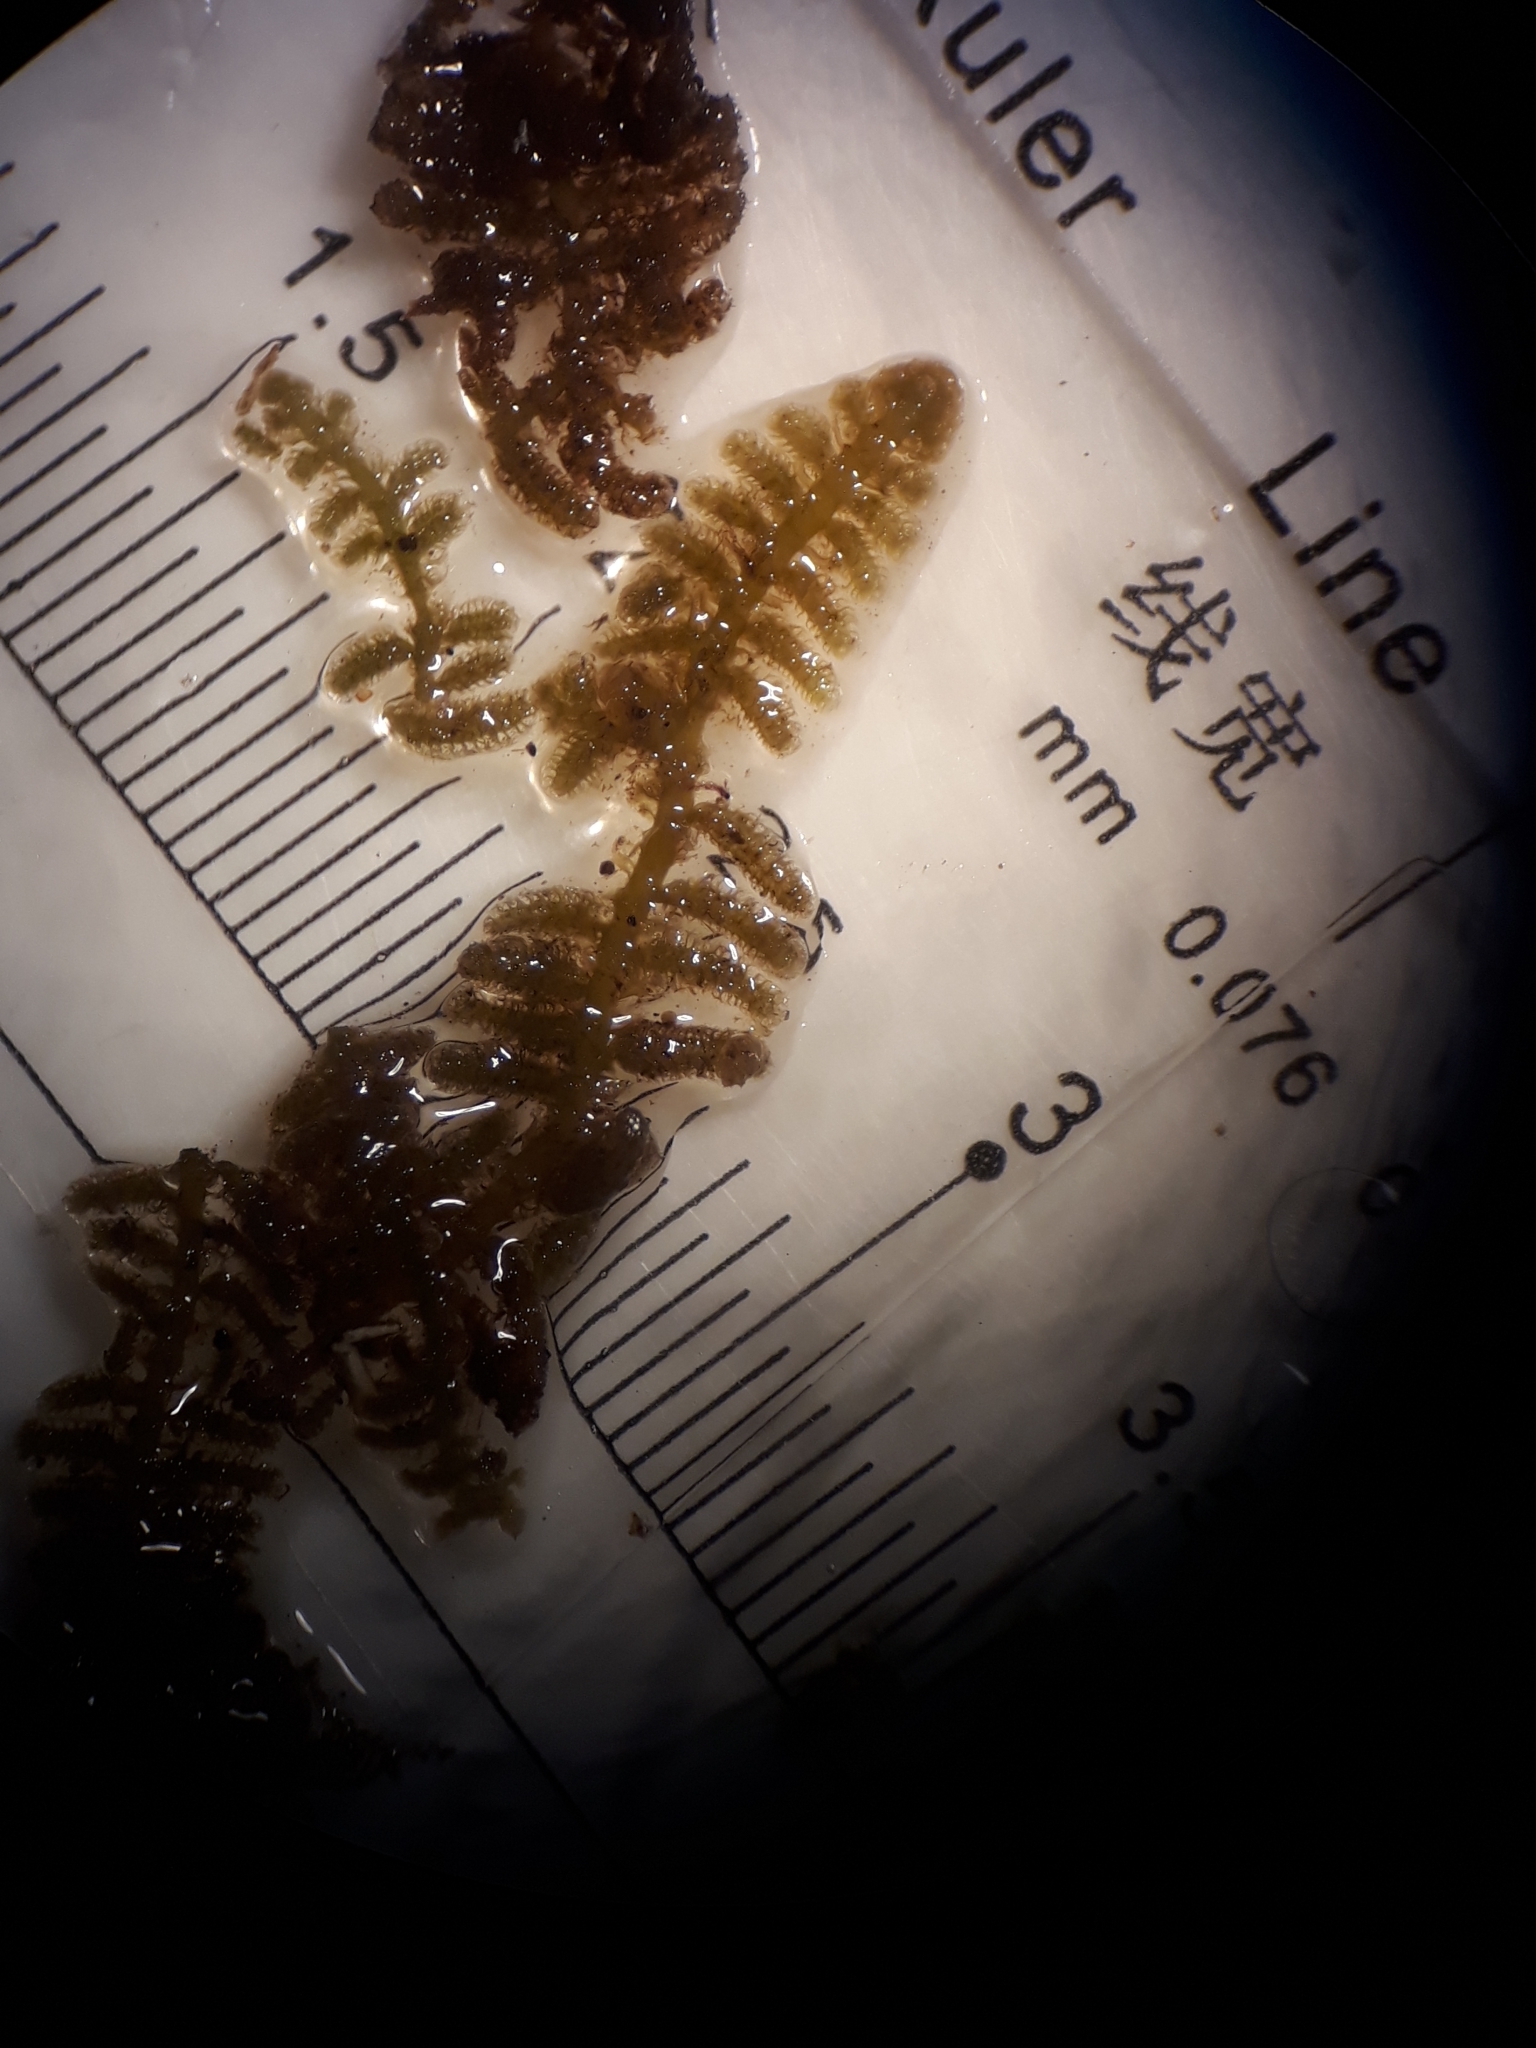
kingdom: Plantae
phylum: Marchantiophyta
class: Jungermanniopsida
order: Ptilidiales
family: Herzogianthaceae
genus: Herzogianthus
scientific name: Herzogianthus vaginatus
